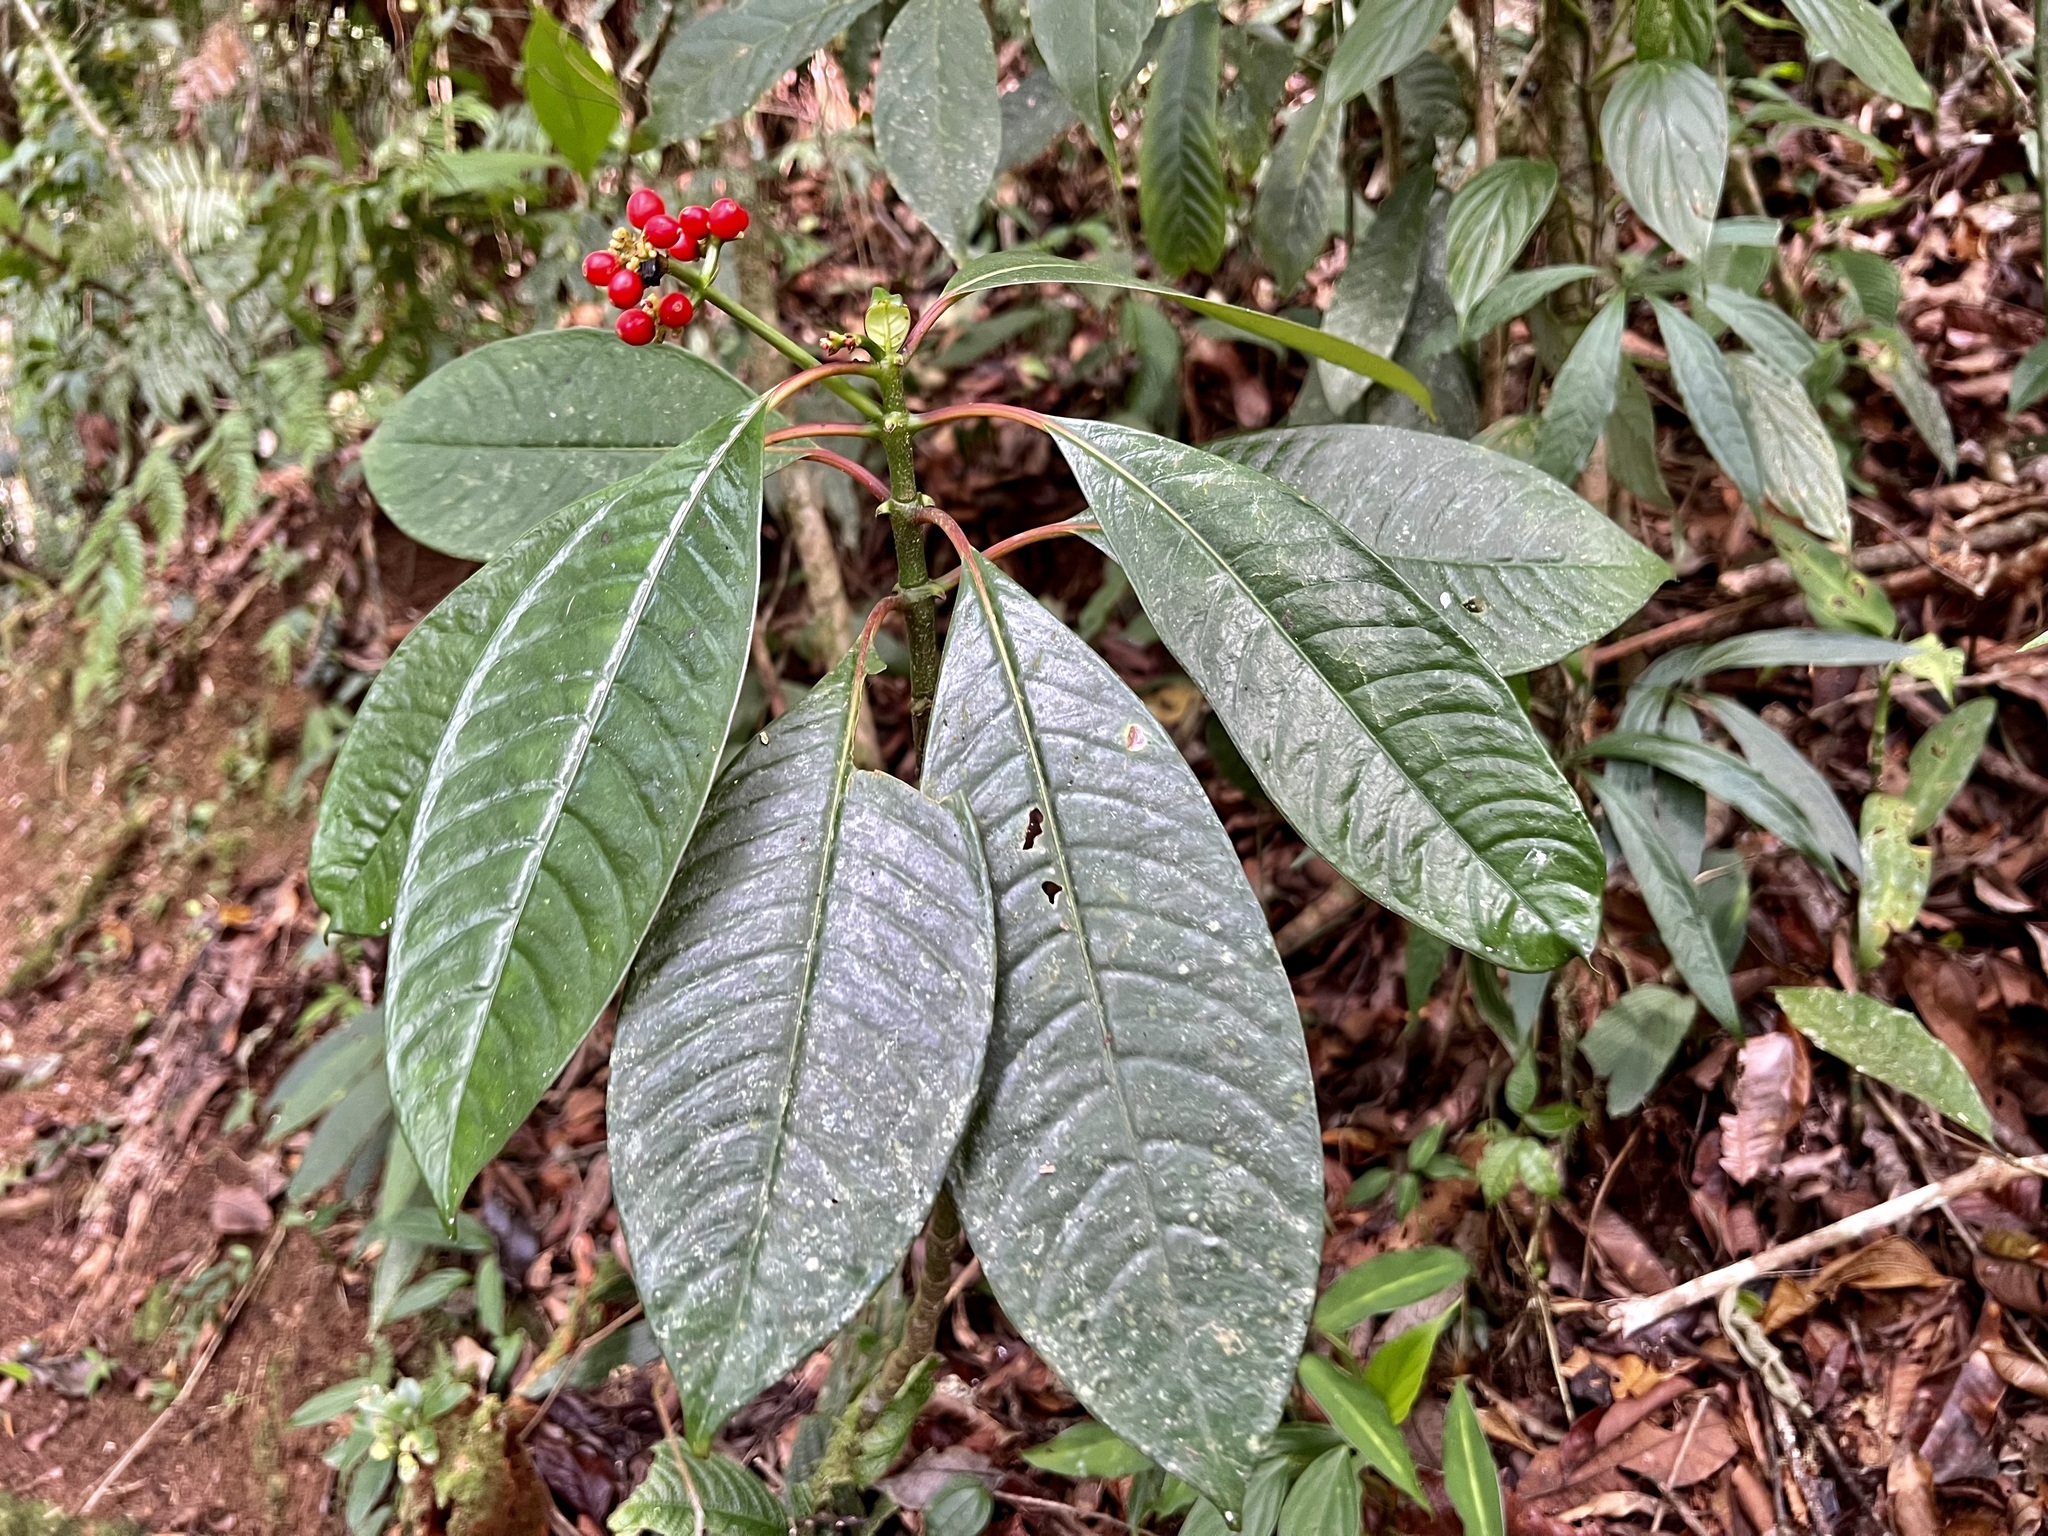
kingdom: Plantae
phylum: Tracheophyta
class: Magnoliopsida
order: Gentianales
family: Rubiaceae
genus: Notopleura
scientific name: Notopleura uliginosa
